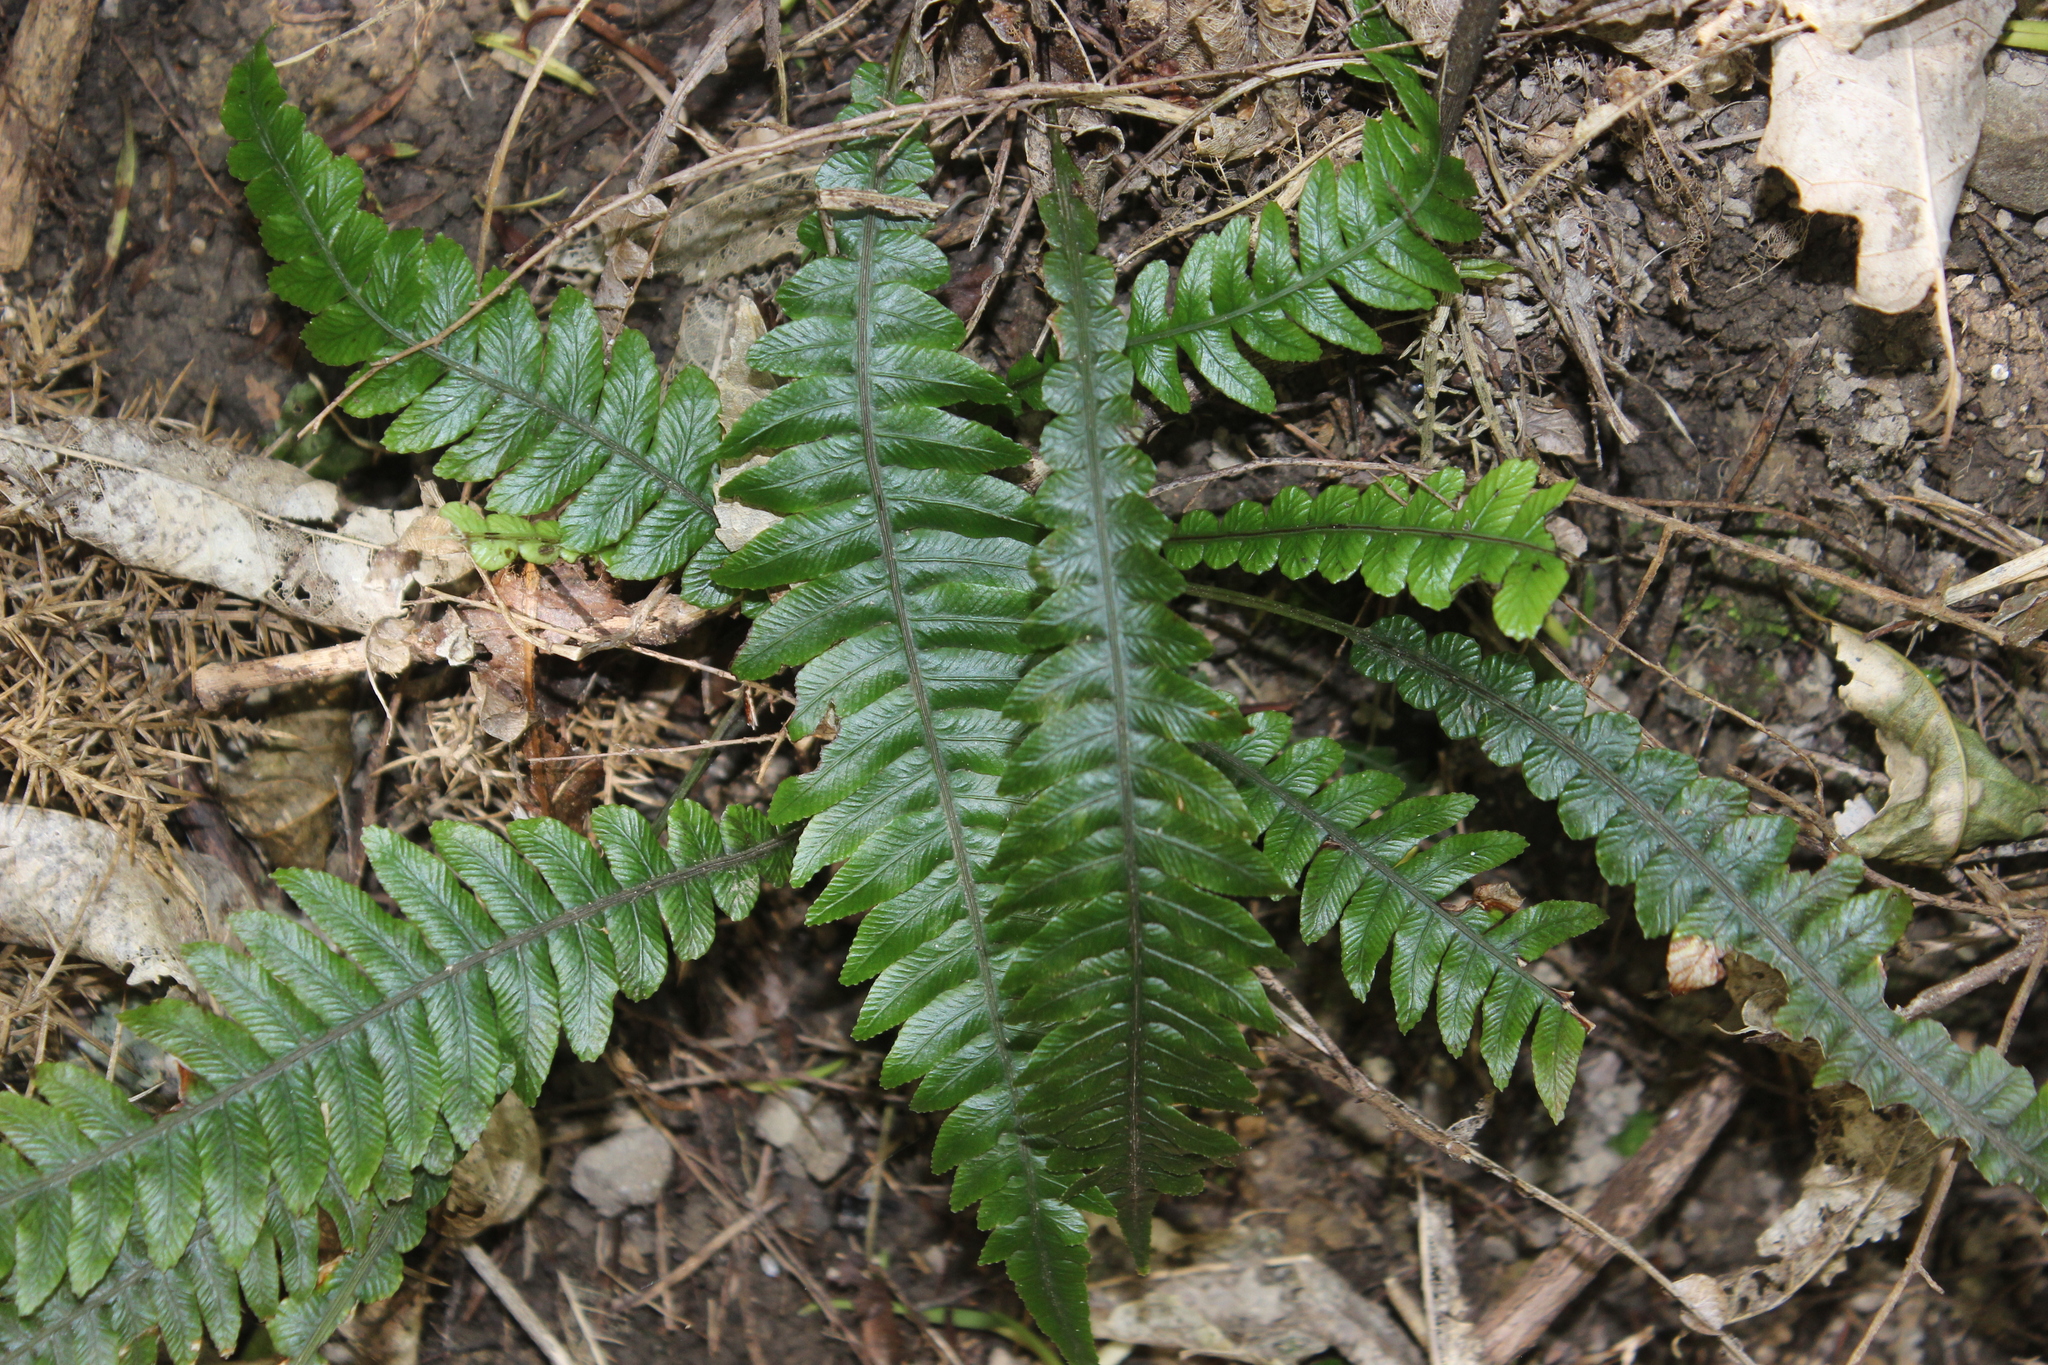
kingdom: Plantae
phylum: Tracheophyta
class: Polypodiopsida
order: Polypodiales
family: Blechnaceae
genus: Austroblechnum
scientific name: Austroblechnum lanceolatum
